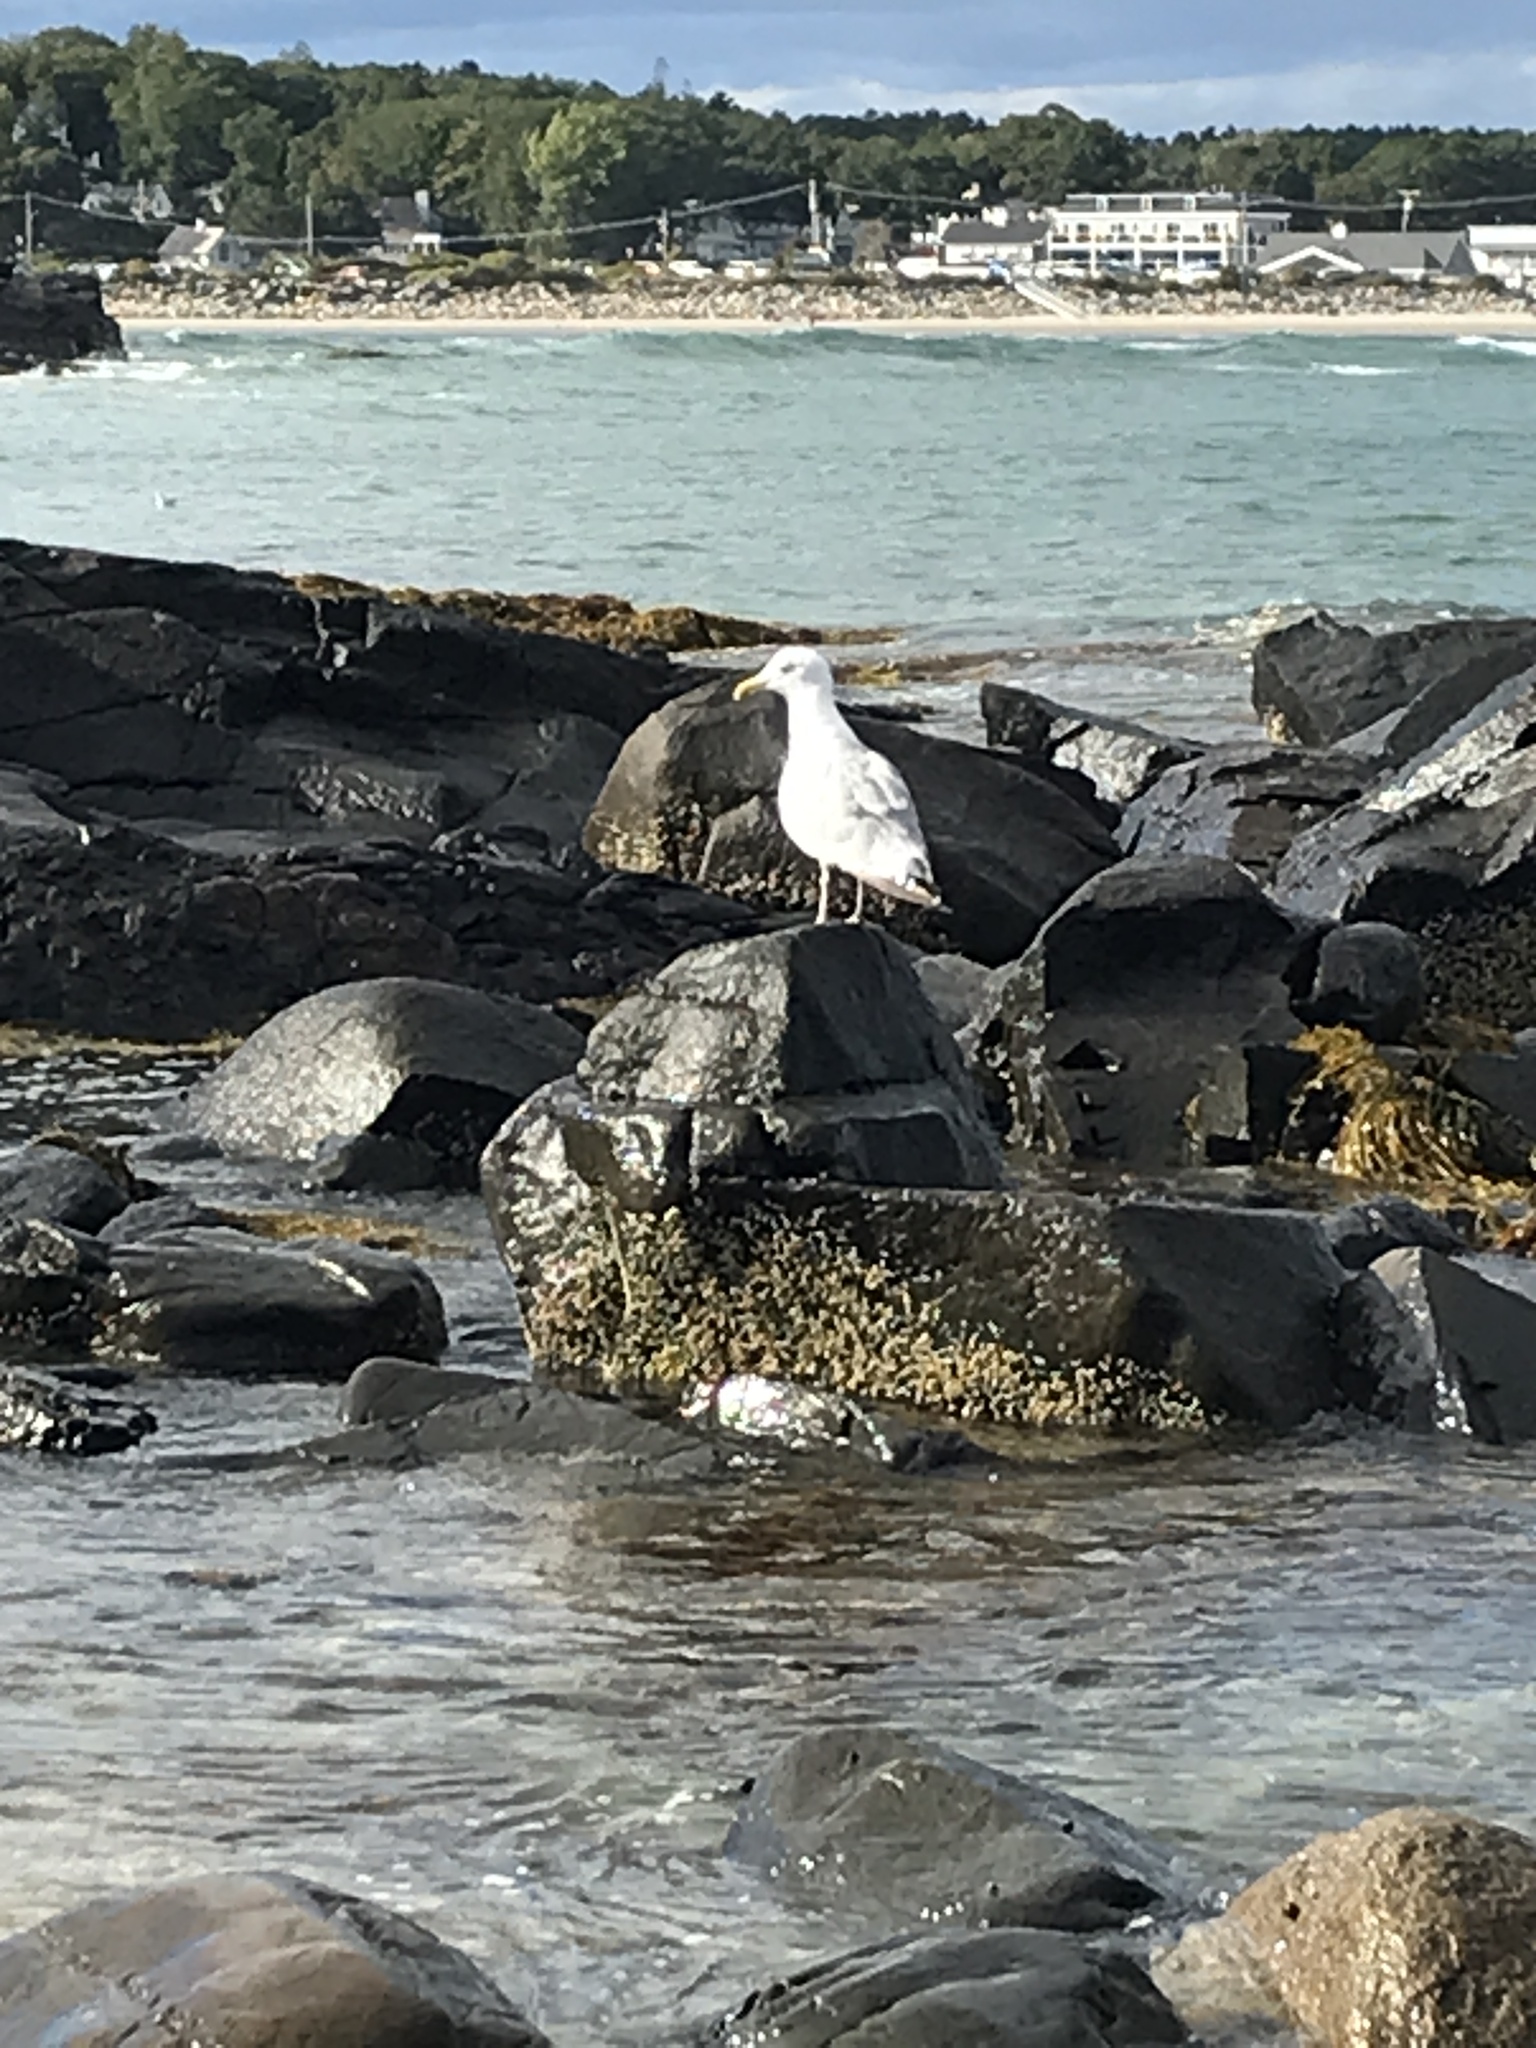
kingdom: Animalia
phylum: Chordata
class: Aves
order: Charadriiformes
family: Laridae
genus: Larus
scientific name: Larus argentatus
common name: Herring gull
